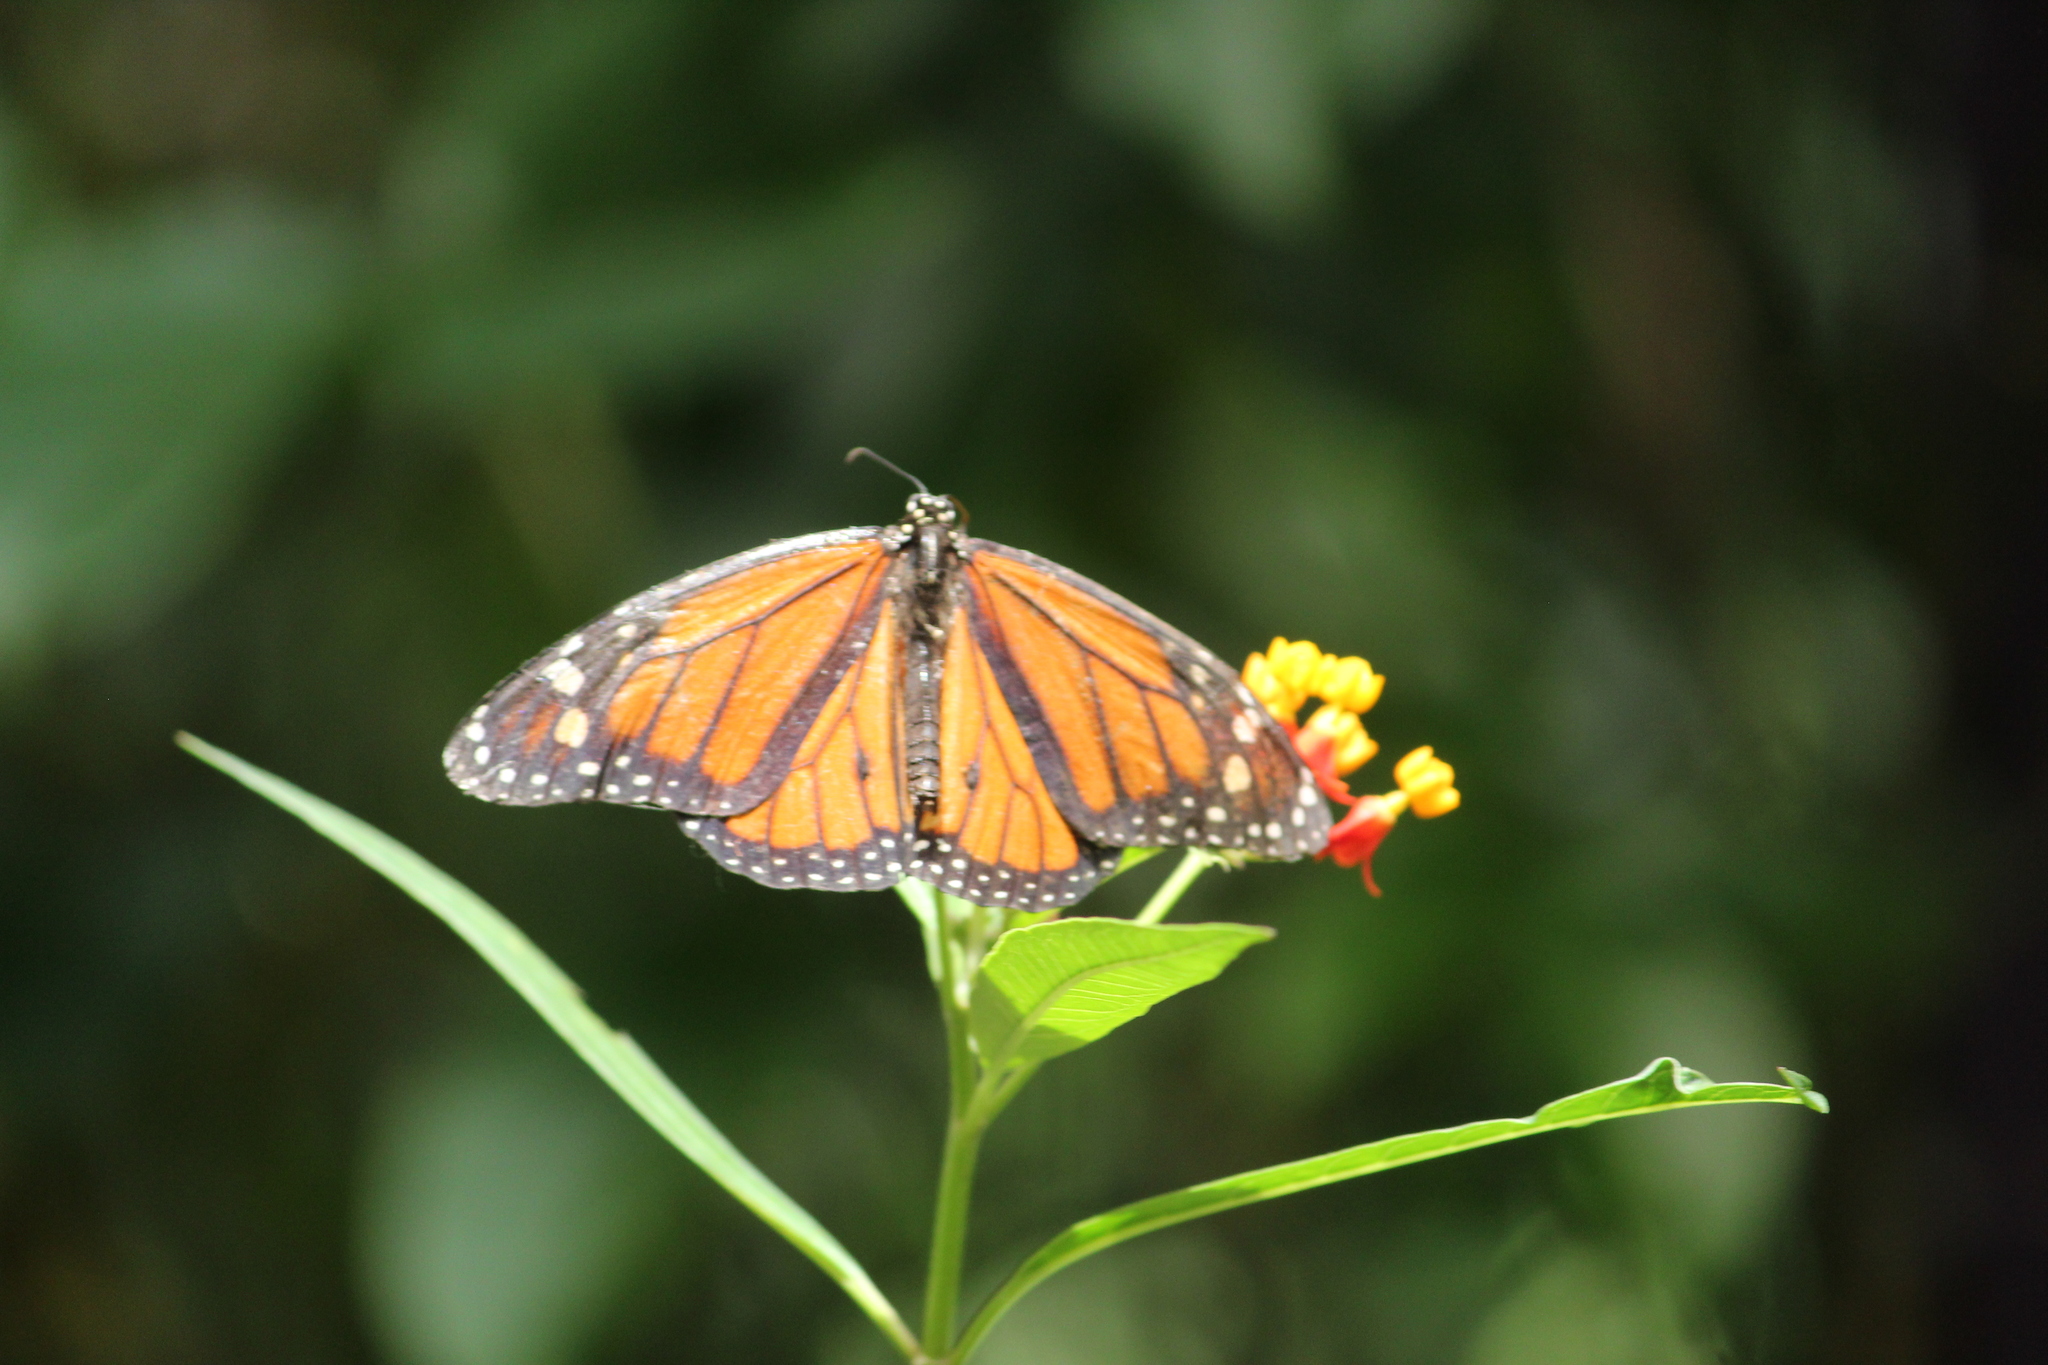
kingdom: Animalia
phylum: Arthropoda
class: Insecta
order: Lepidoptera
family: Nymphalidae
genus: Danaus
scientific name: Danaus plexippus
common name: Monarch
